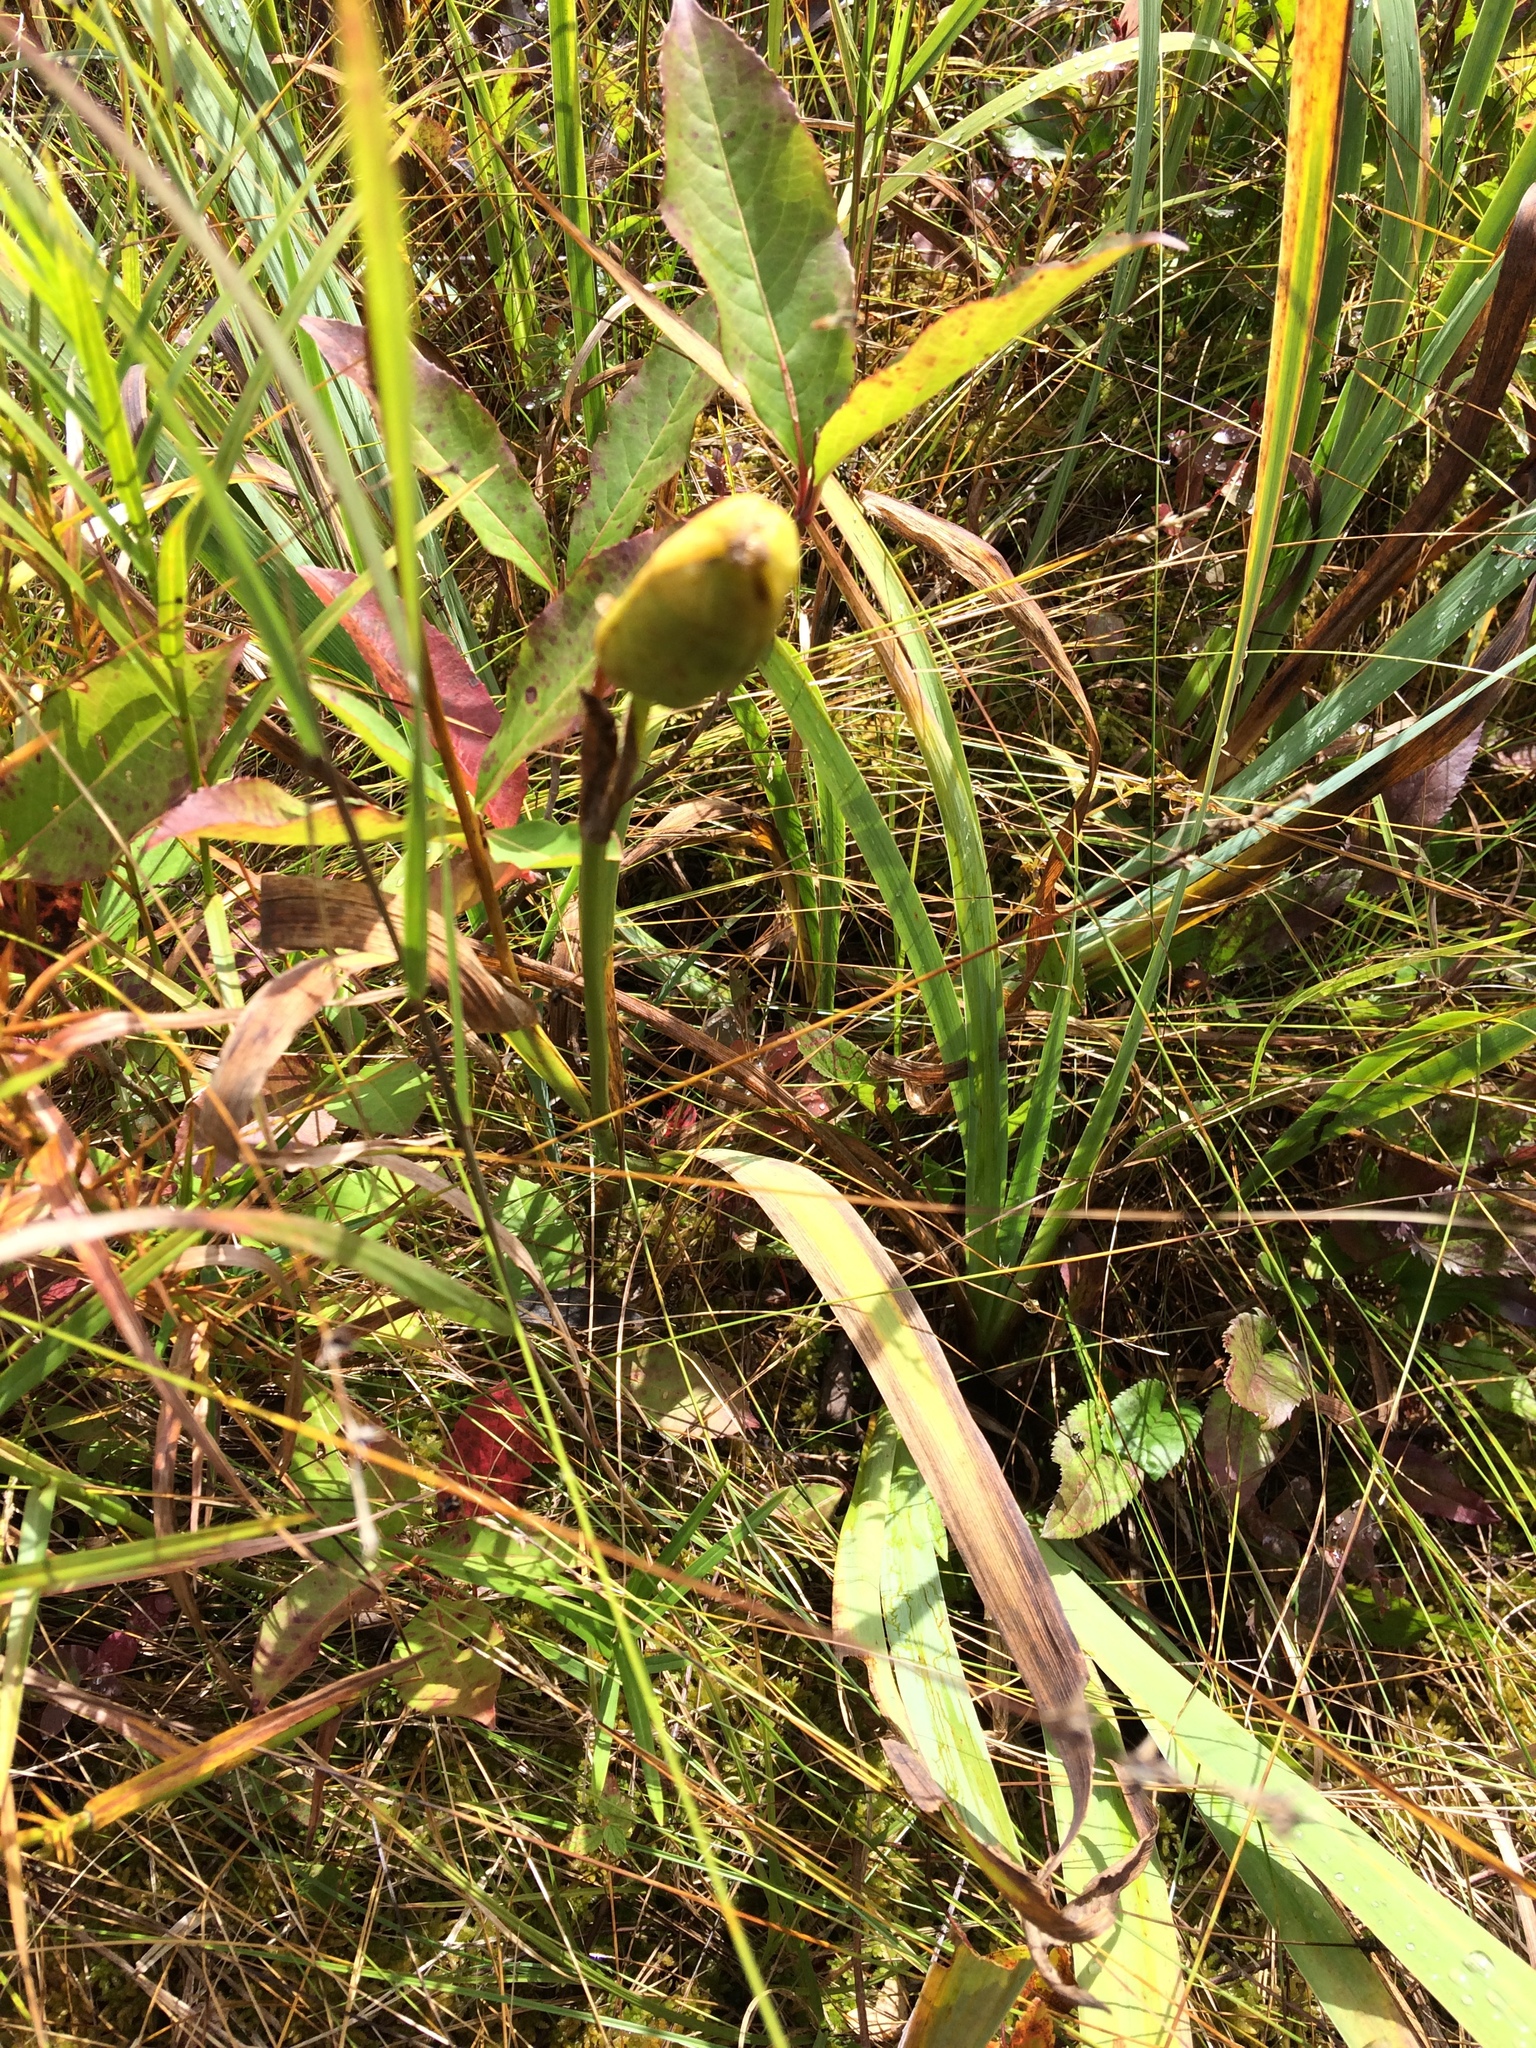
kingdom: Plantae
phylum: Tracheophyta
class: Liliopsida
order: Asparagales
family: Iridaceae
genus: Iris
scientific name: Iris versicolor
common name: Purple iris
